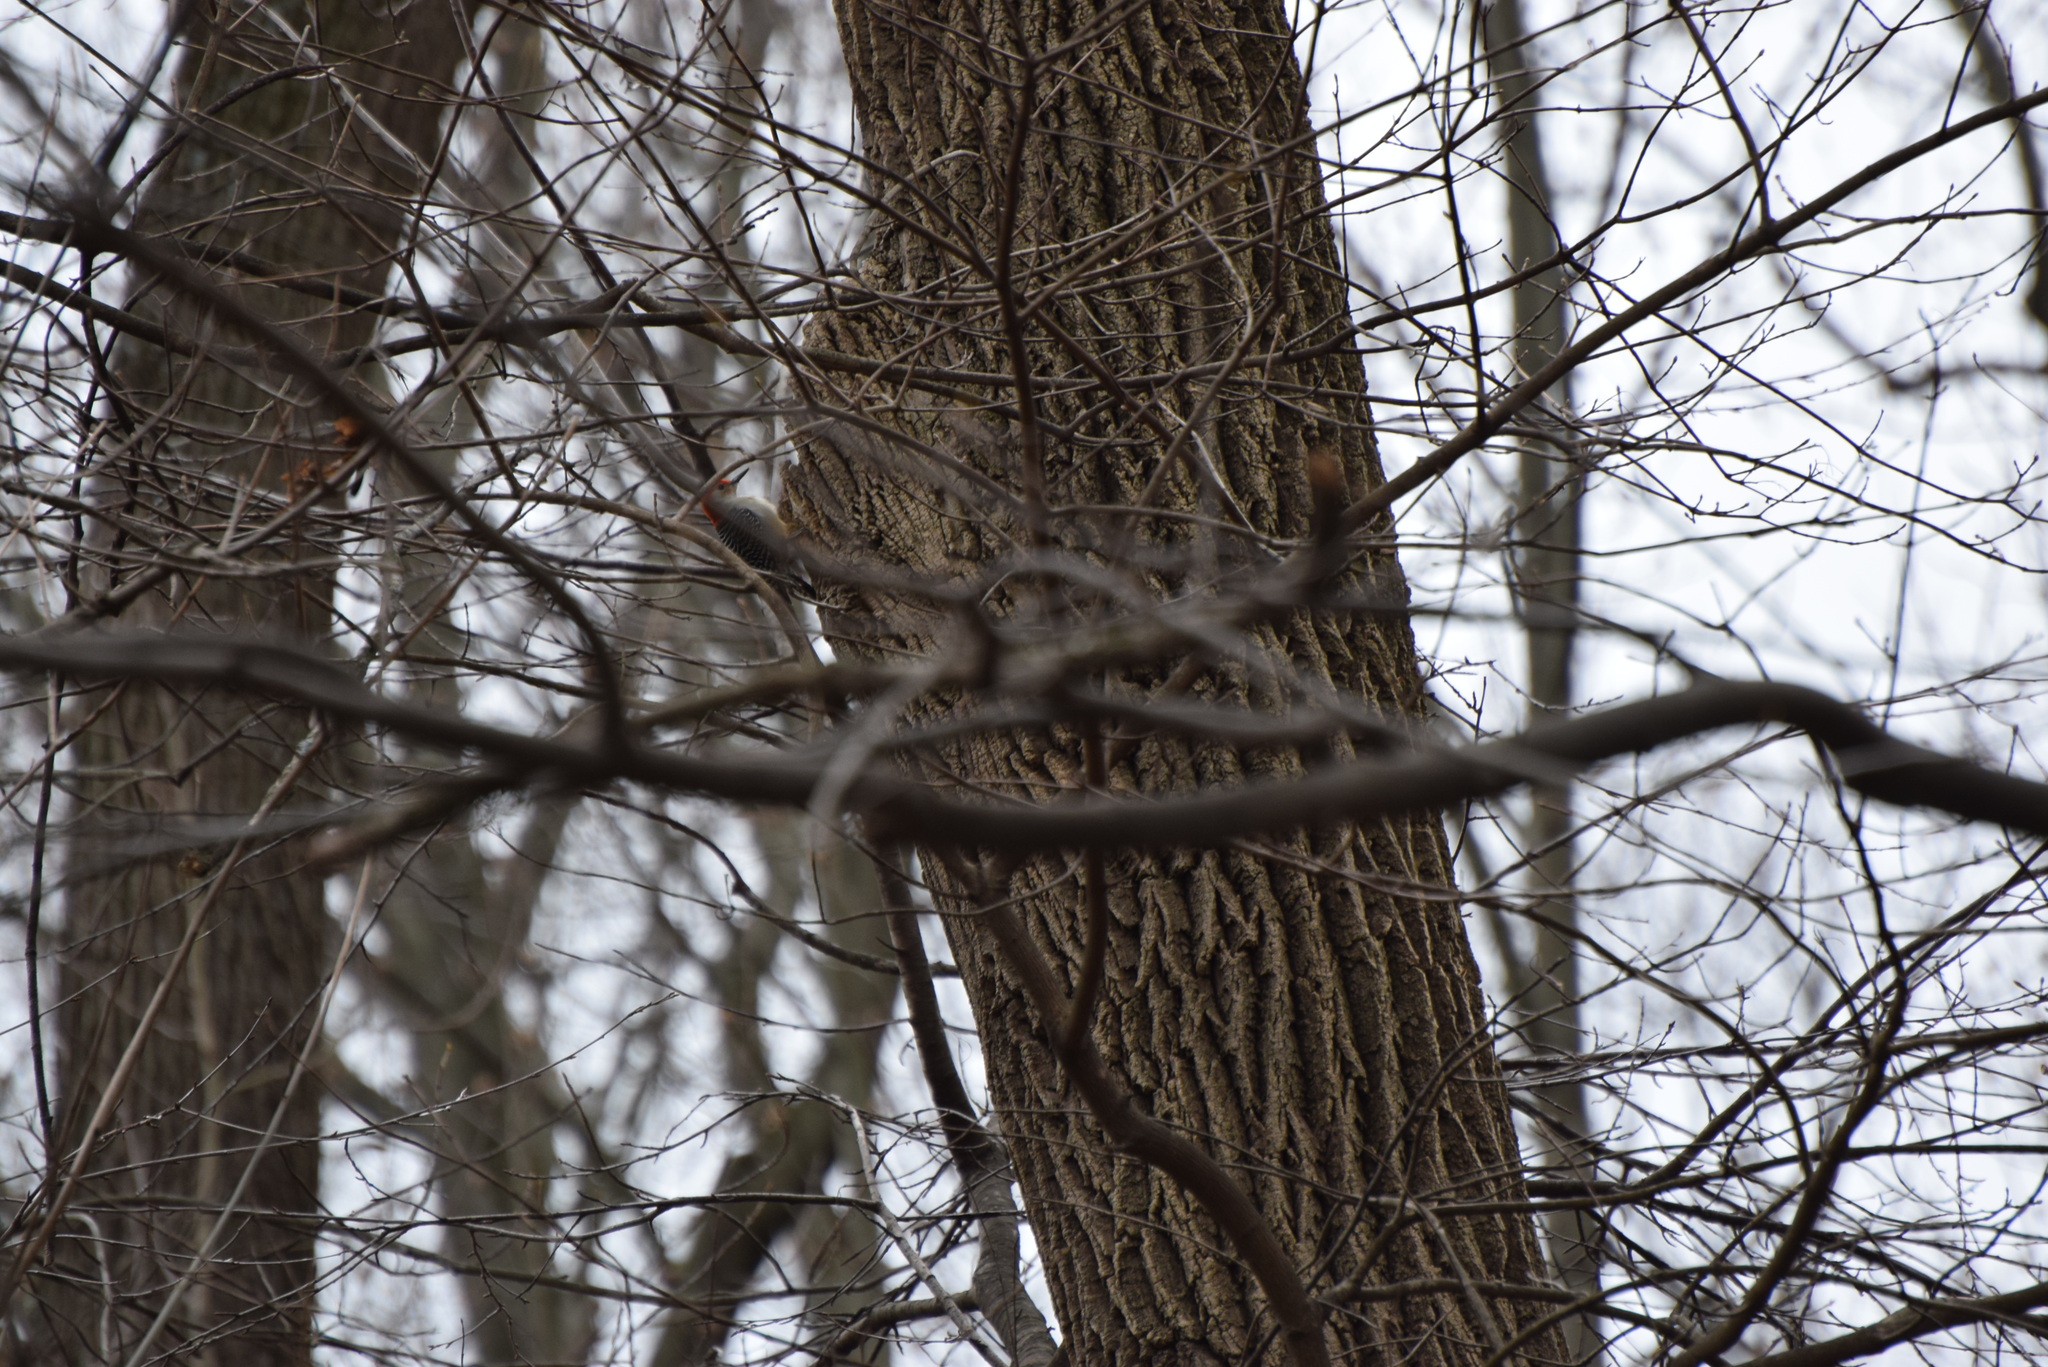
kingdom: Animalia
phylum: Chordata
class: Aves
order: Piciformes
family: Picidae
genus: Melanerpes
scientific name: Melanerpes carolinus
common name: Red-bellied woodpecker
